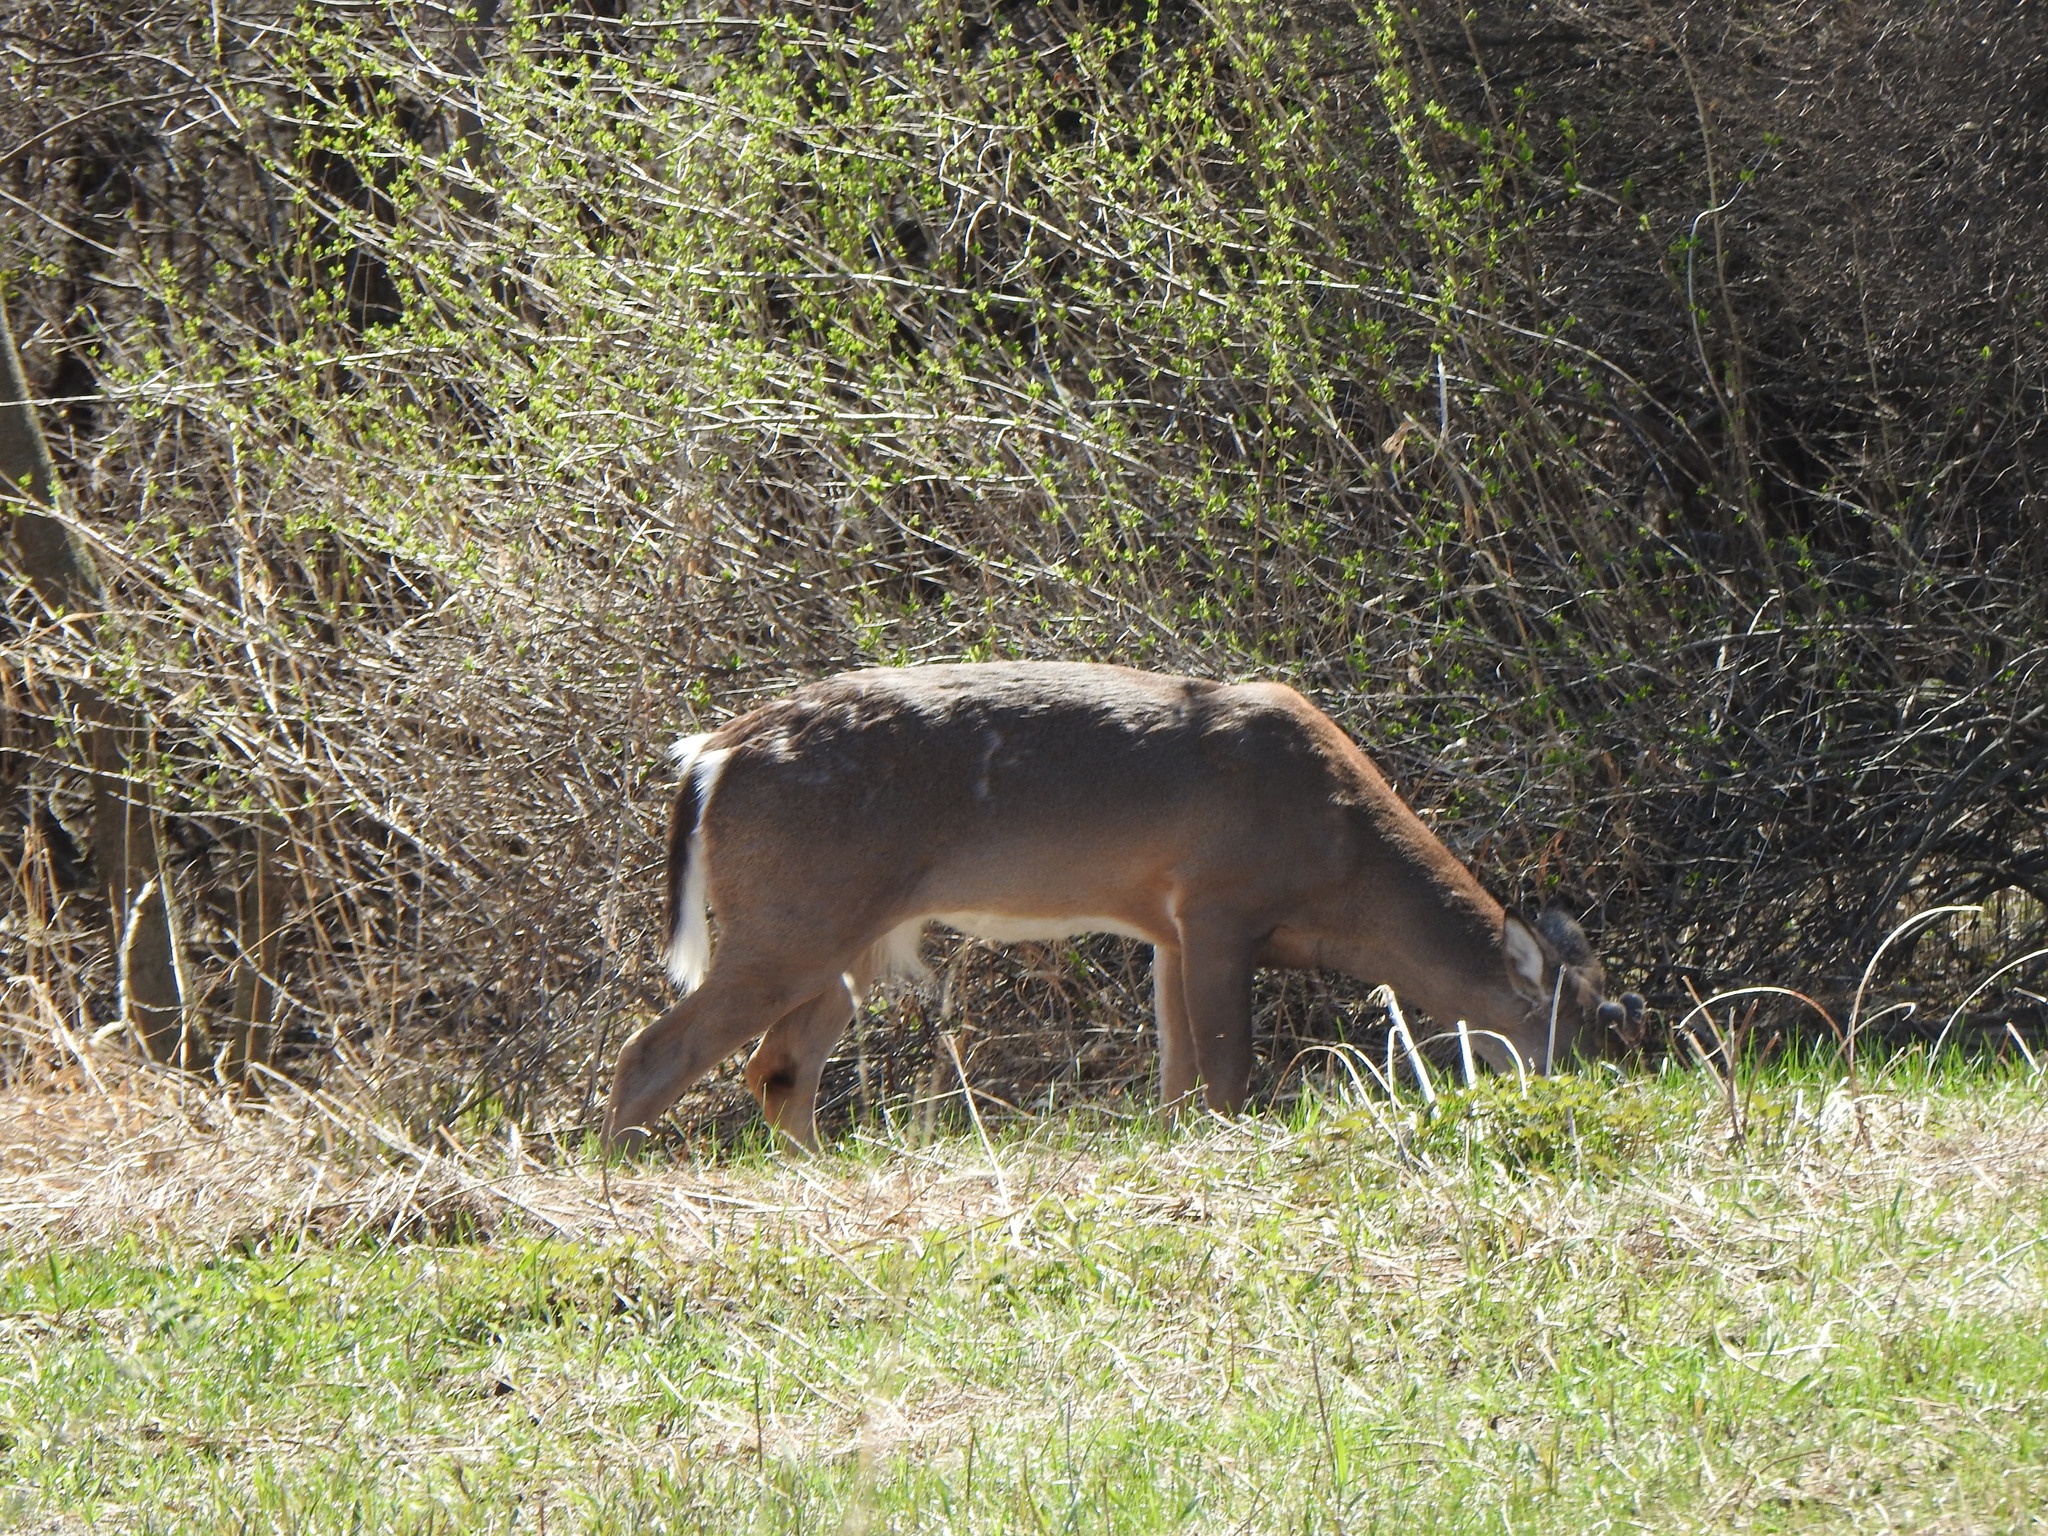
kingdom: Animalia
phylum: Chordata
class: Mammalia
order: Artiodactyla
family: Cervidae
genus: Odocoileus
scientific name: Odocoileus virginianus
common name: White-tailed deer
